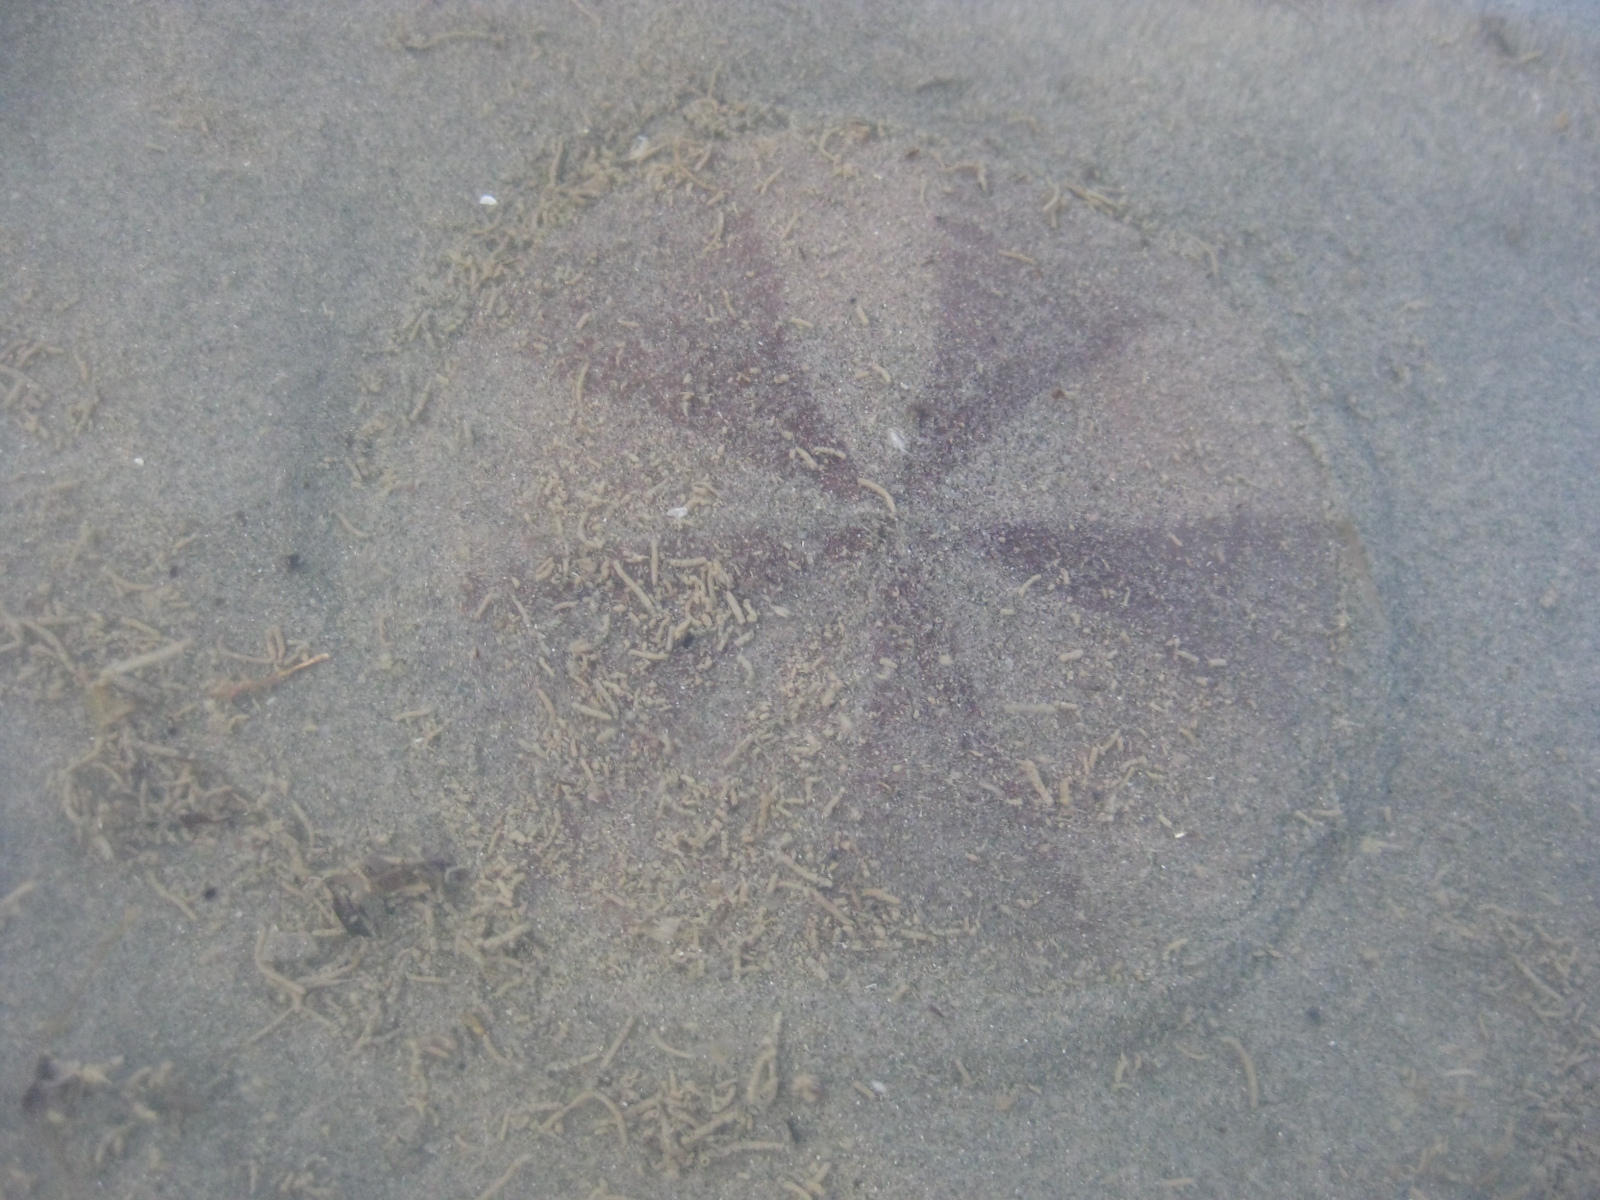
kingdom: Animalia
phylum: Echinodermata
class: Echinoidea
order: Clypeasteroida
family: Clypeasteridae
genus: Fellaster
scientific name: Fellaster zelandiae
